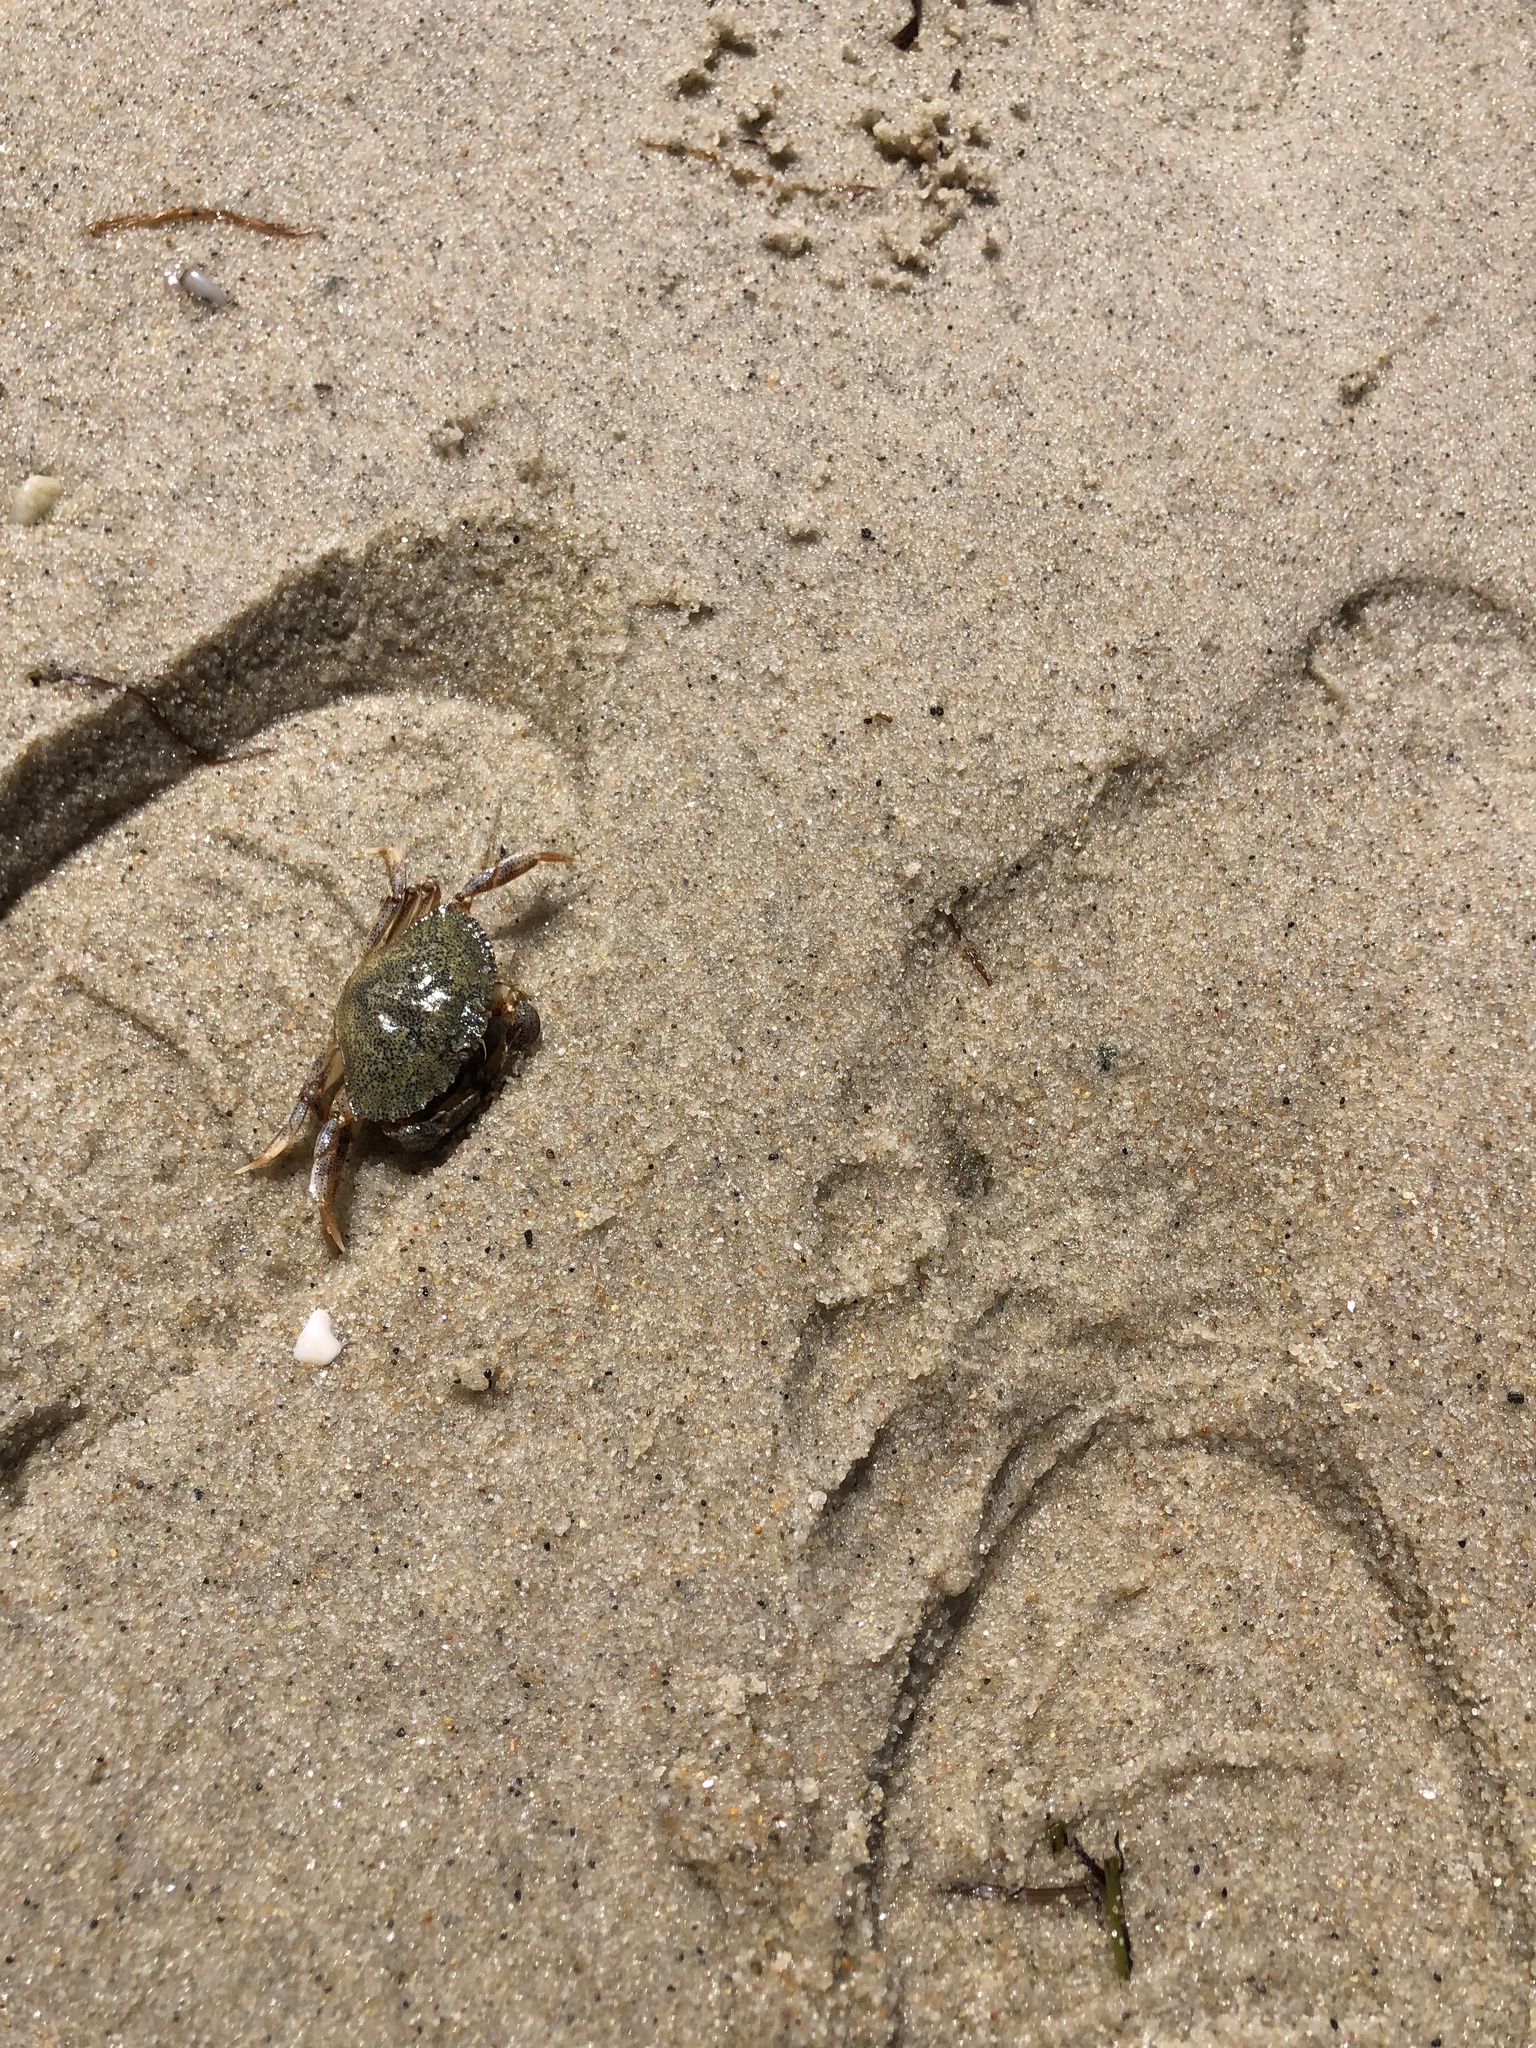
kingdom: Animalia
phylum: Arthropoda
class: Malacostraca
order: Decapoda
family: Cancridae
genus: Cancer
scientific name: Cancer irroratus
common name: Atlantic rock crab
